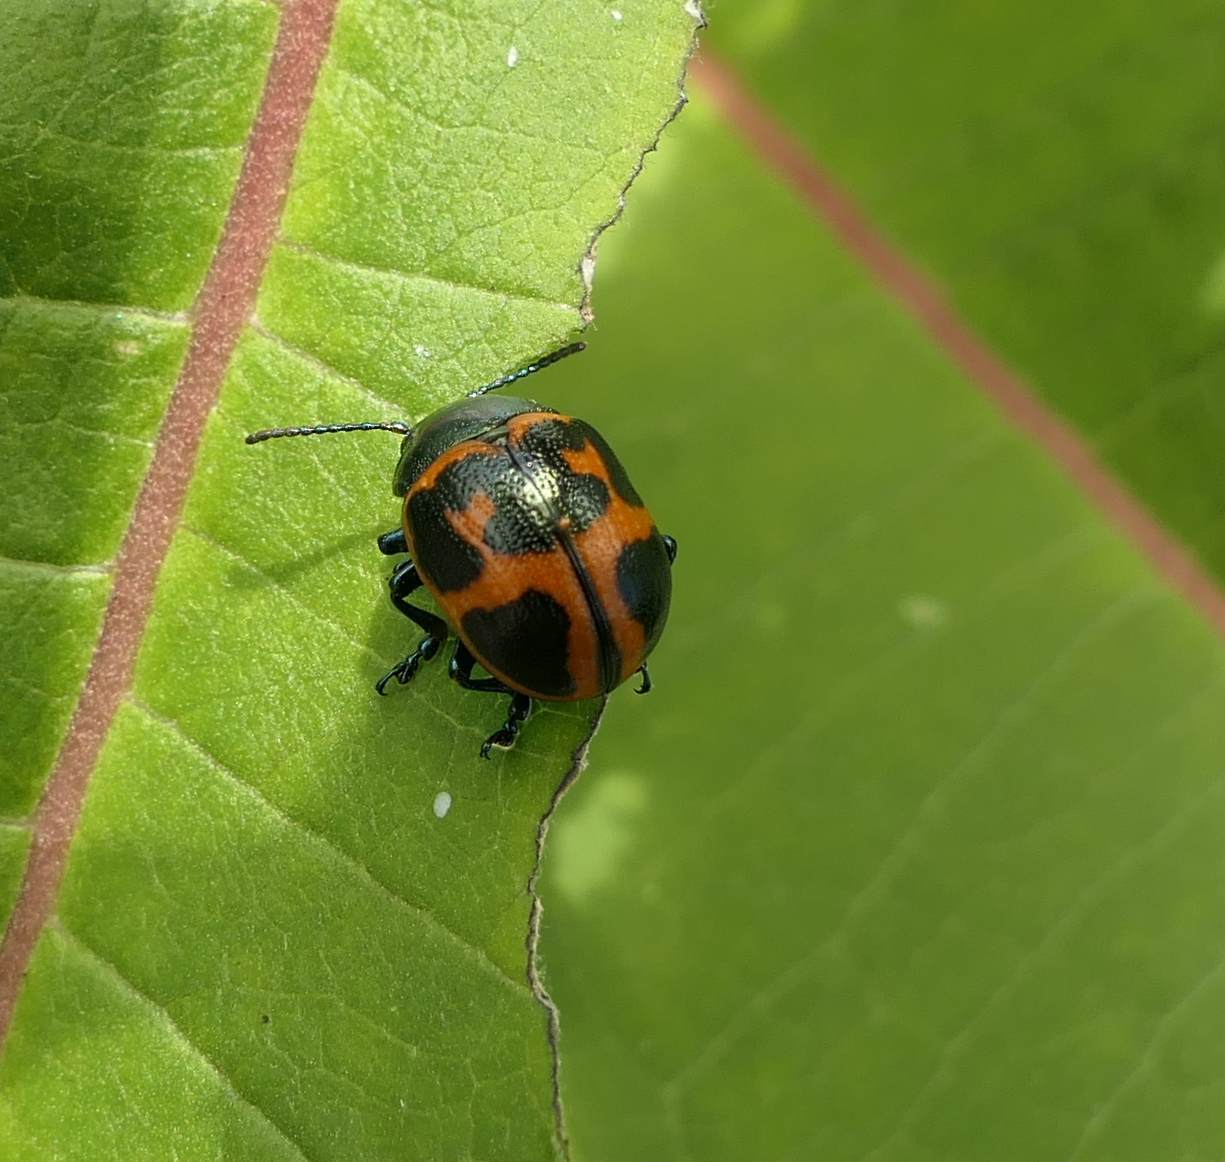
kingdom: Animalia
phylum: Arthropoda
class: Insecta
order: Coleoptera
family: Chrysomelidae
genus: Labidomera
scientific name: Labidomera clivicollis
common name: Swamp milkweed leaf beetle
